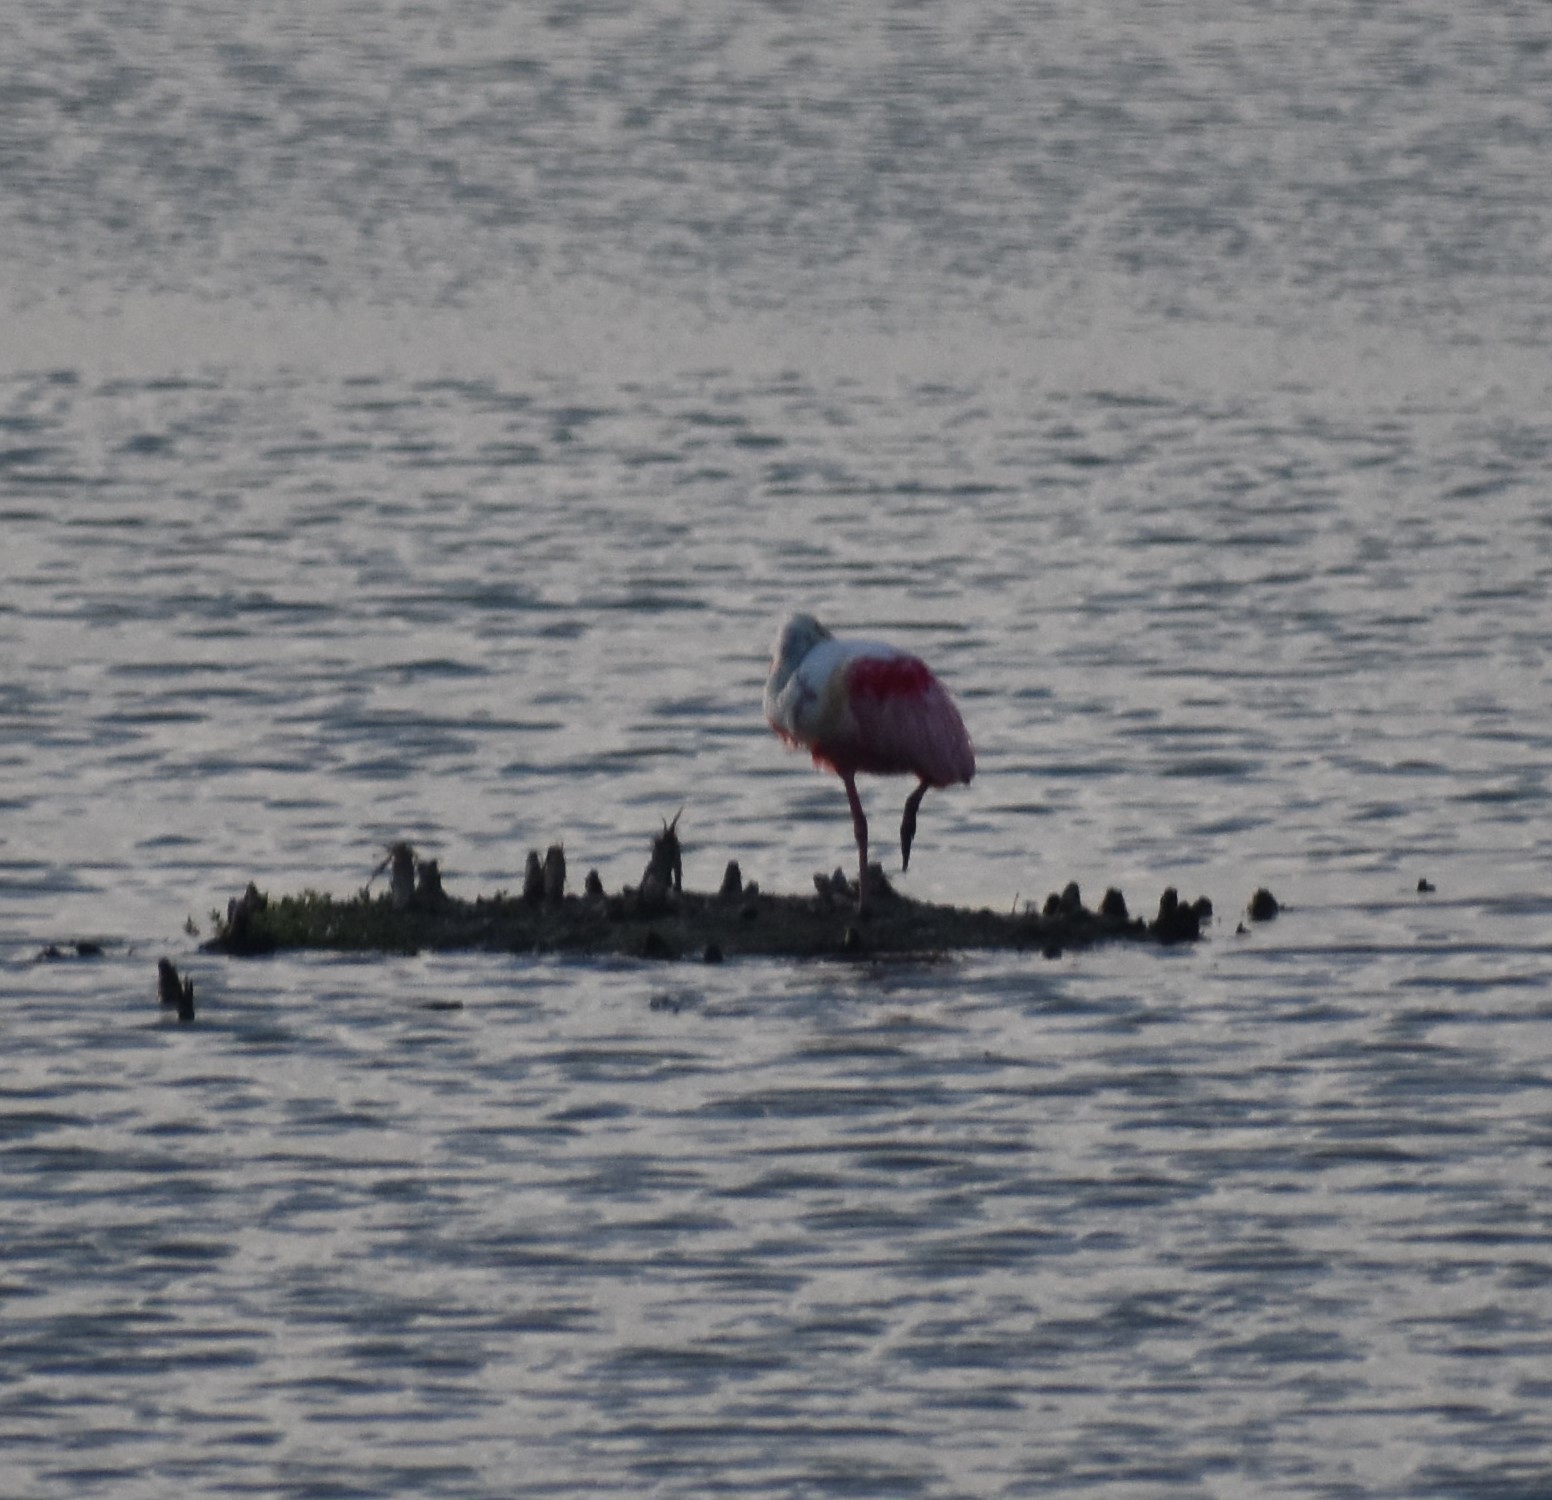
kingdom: Animalia
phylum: Chordata
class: Aves
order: Pelecaniformes
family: Threskiornithidae
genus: Platalea
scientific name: Platalea ajaja
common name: Roseate spoonbill
